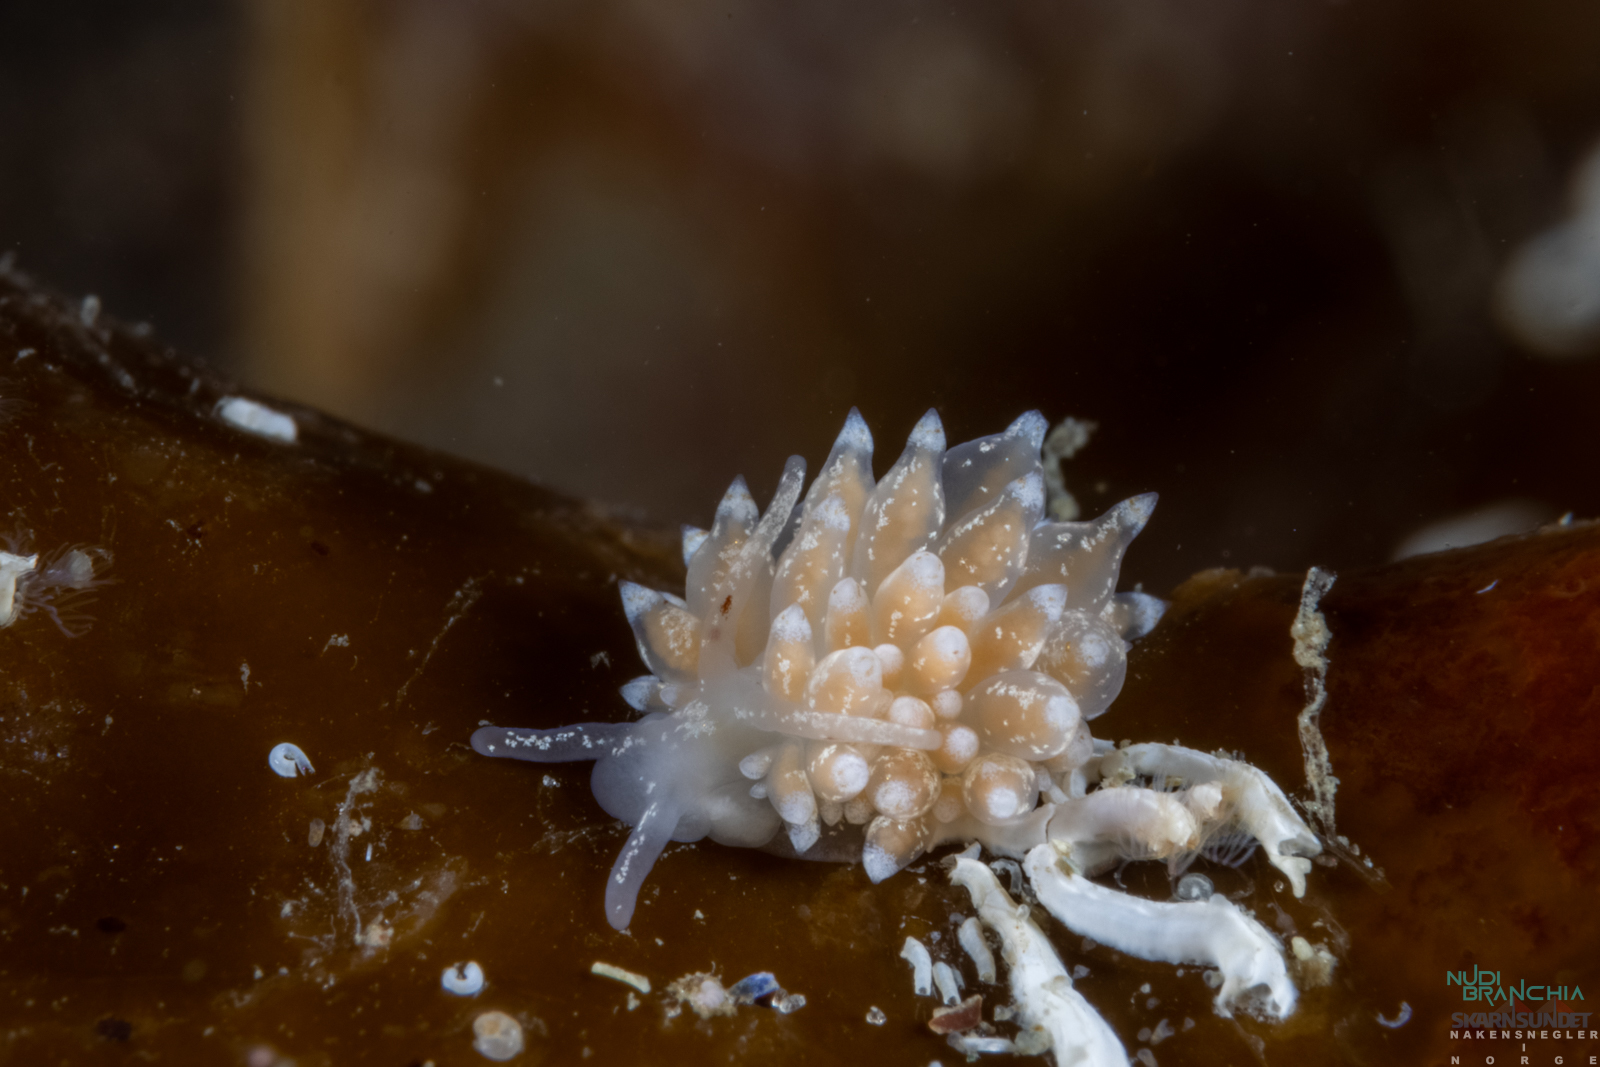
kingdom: Animalia
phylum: Mollusca
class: Gastropoda
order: Nudibranchia
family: Eubranchidae
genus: Amphorina
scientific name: Amphorina pallida
